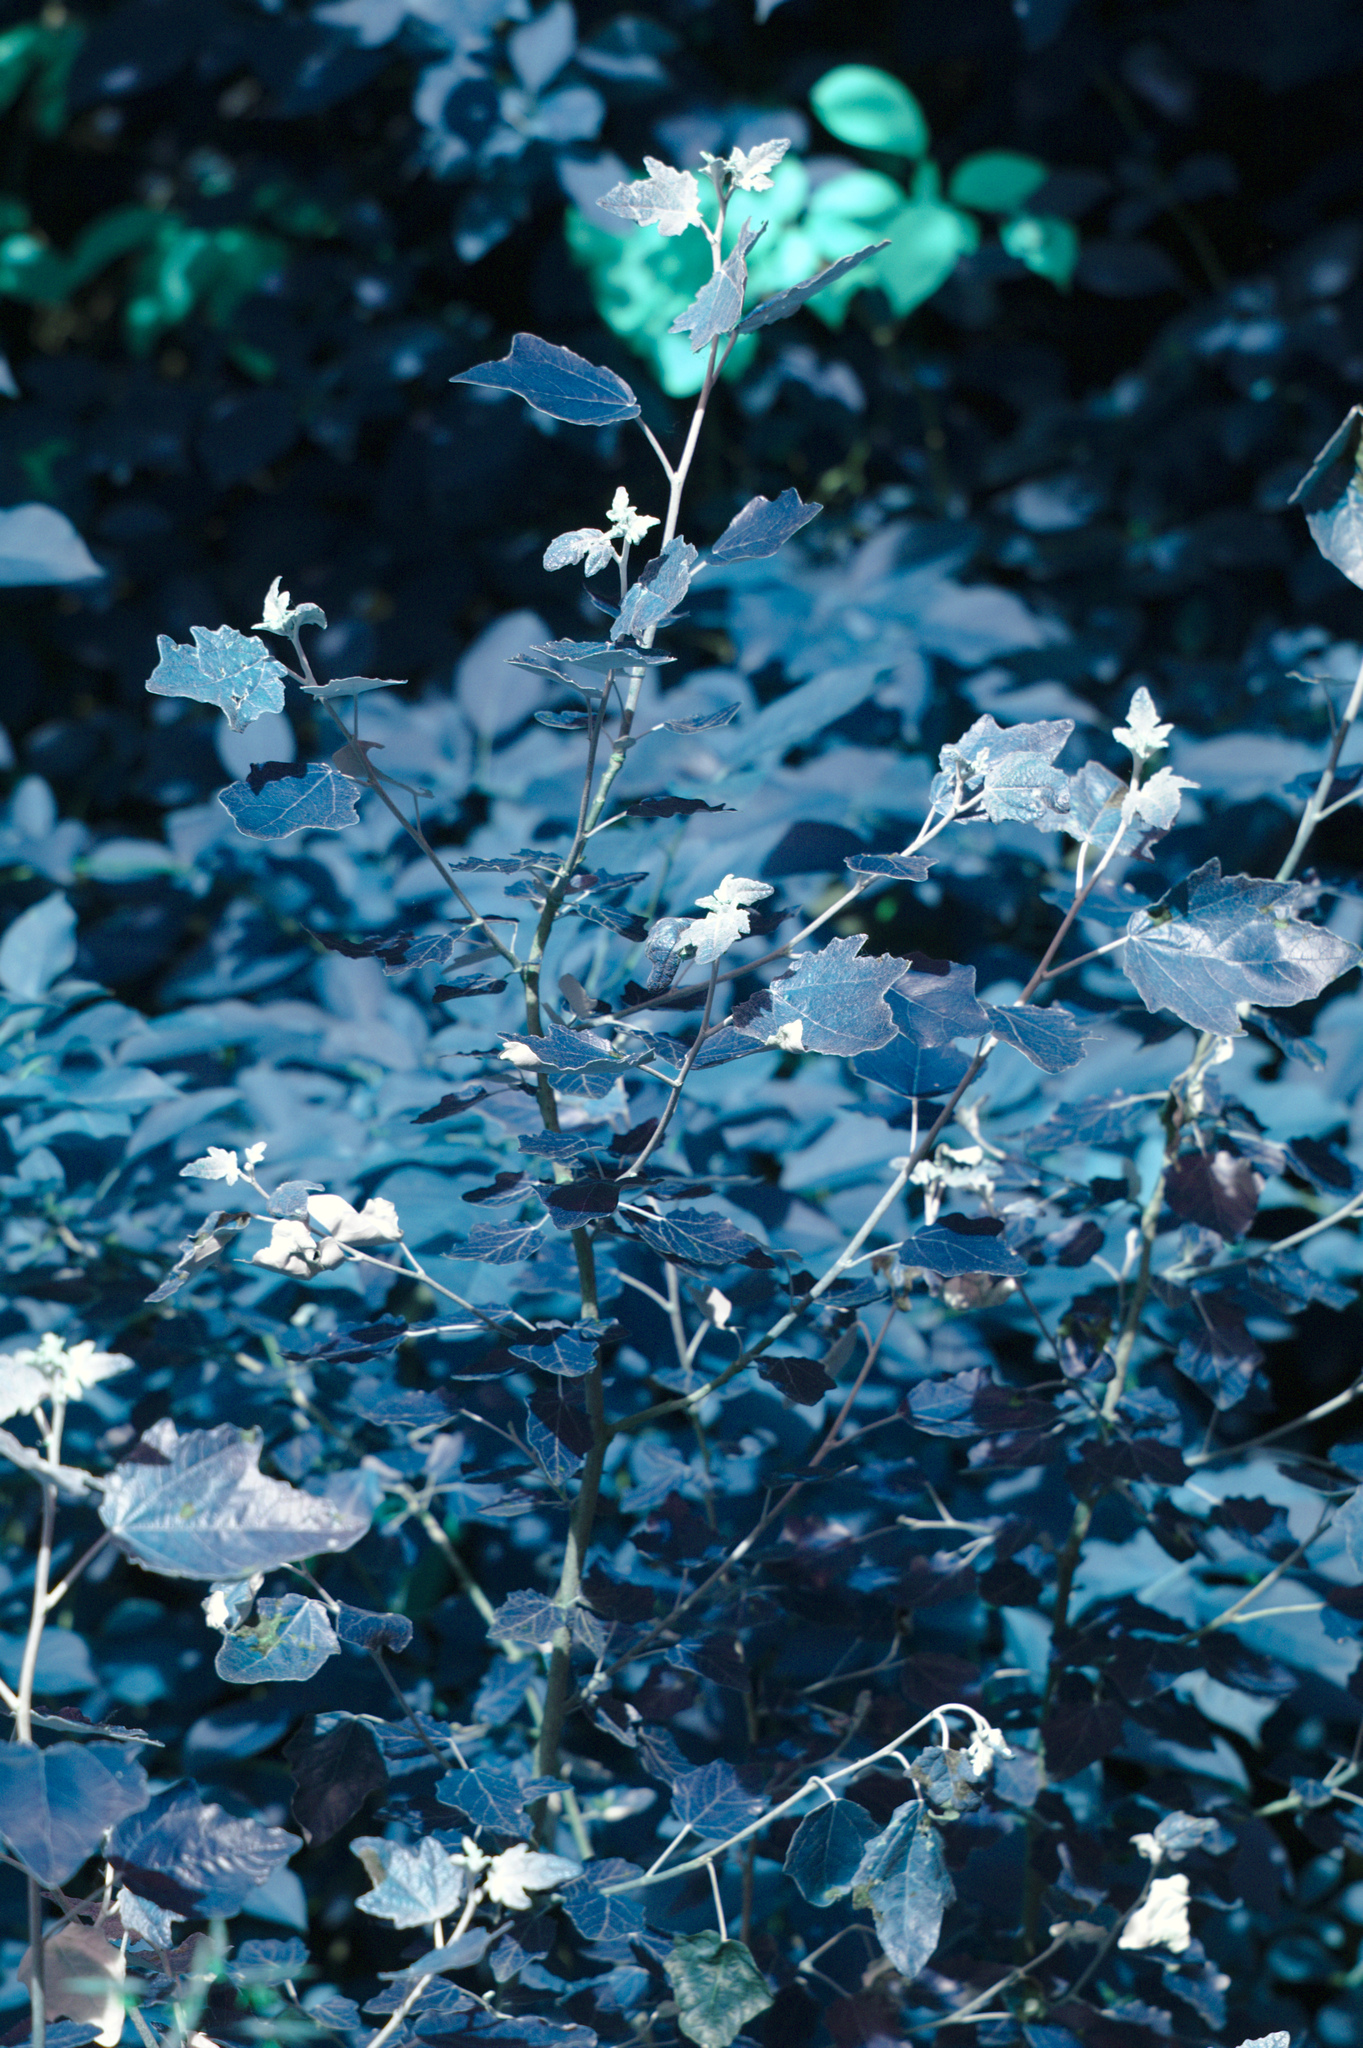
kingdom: Plantae
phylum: Tracheophyta
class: Magnoliopsida
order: Malpighiales
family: Salicaceae
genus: Populus
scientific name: Populus alba
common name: White poplar
